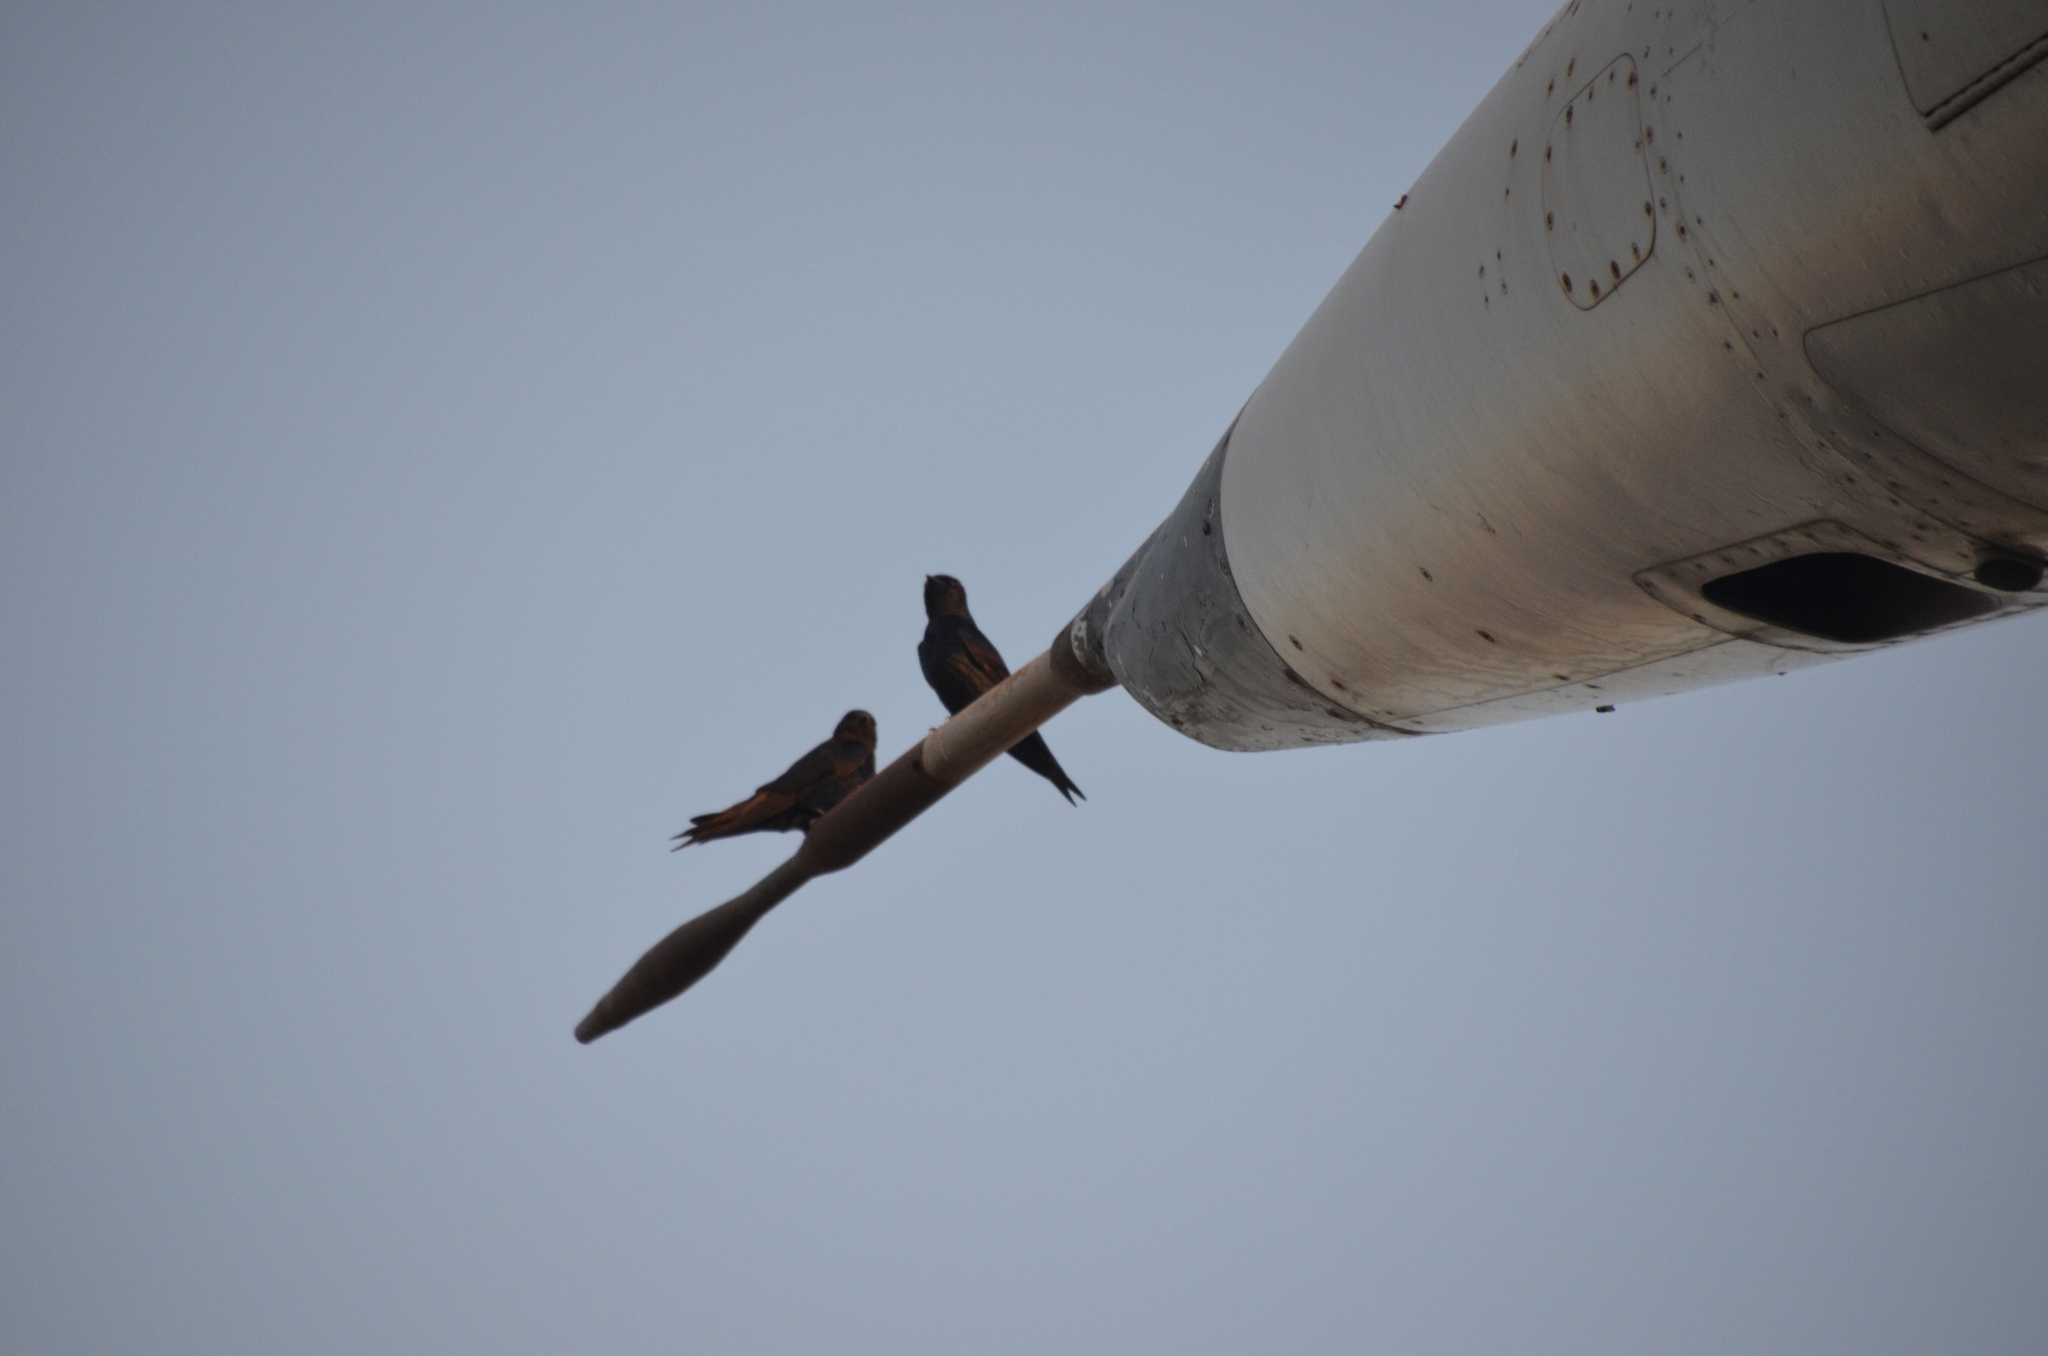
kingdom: Animalia
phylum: Chordata
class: Aves
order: Passeriformes
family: Hirundinidae
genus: Progne
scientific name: Progne elegans
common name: Southern martin
